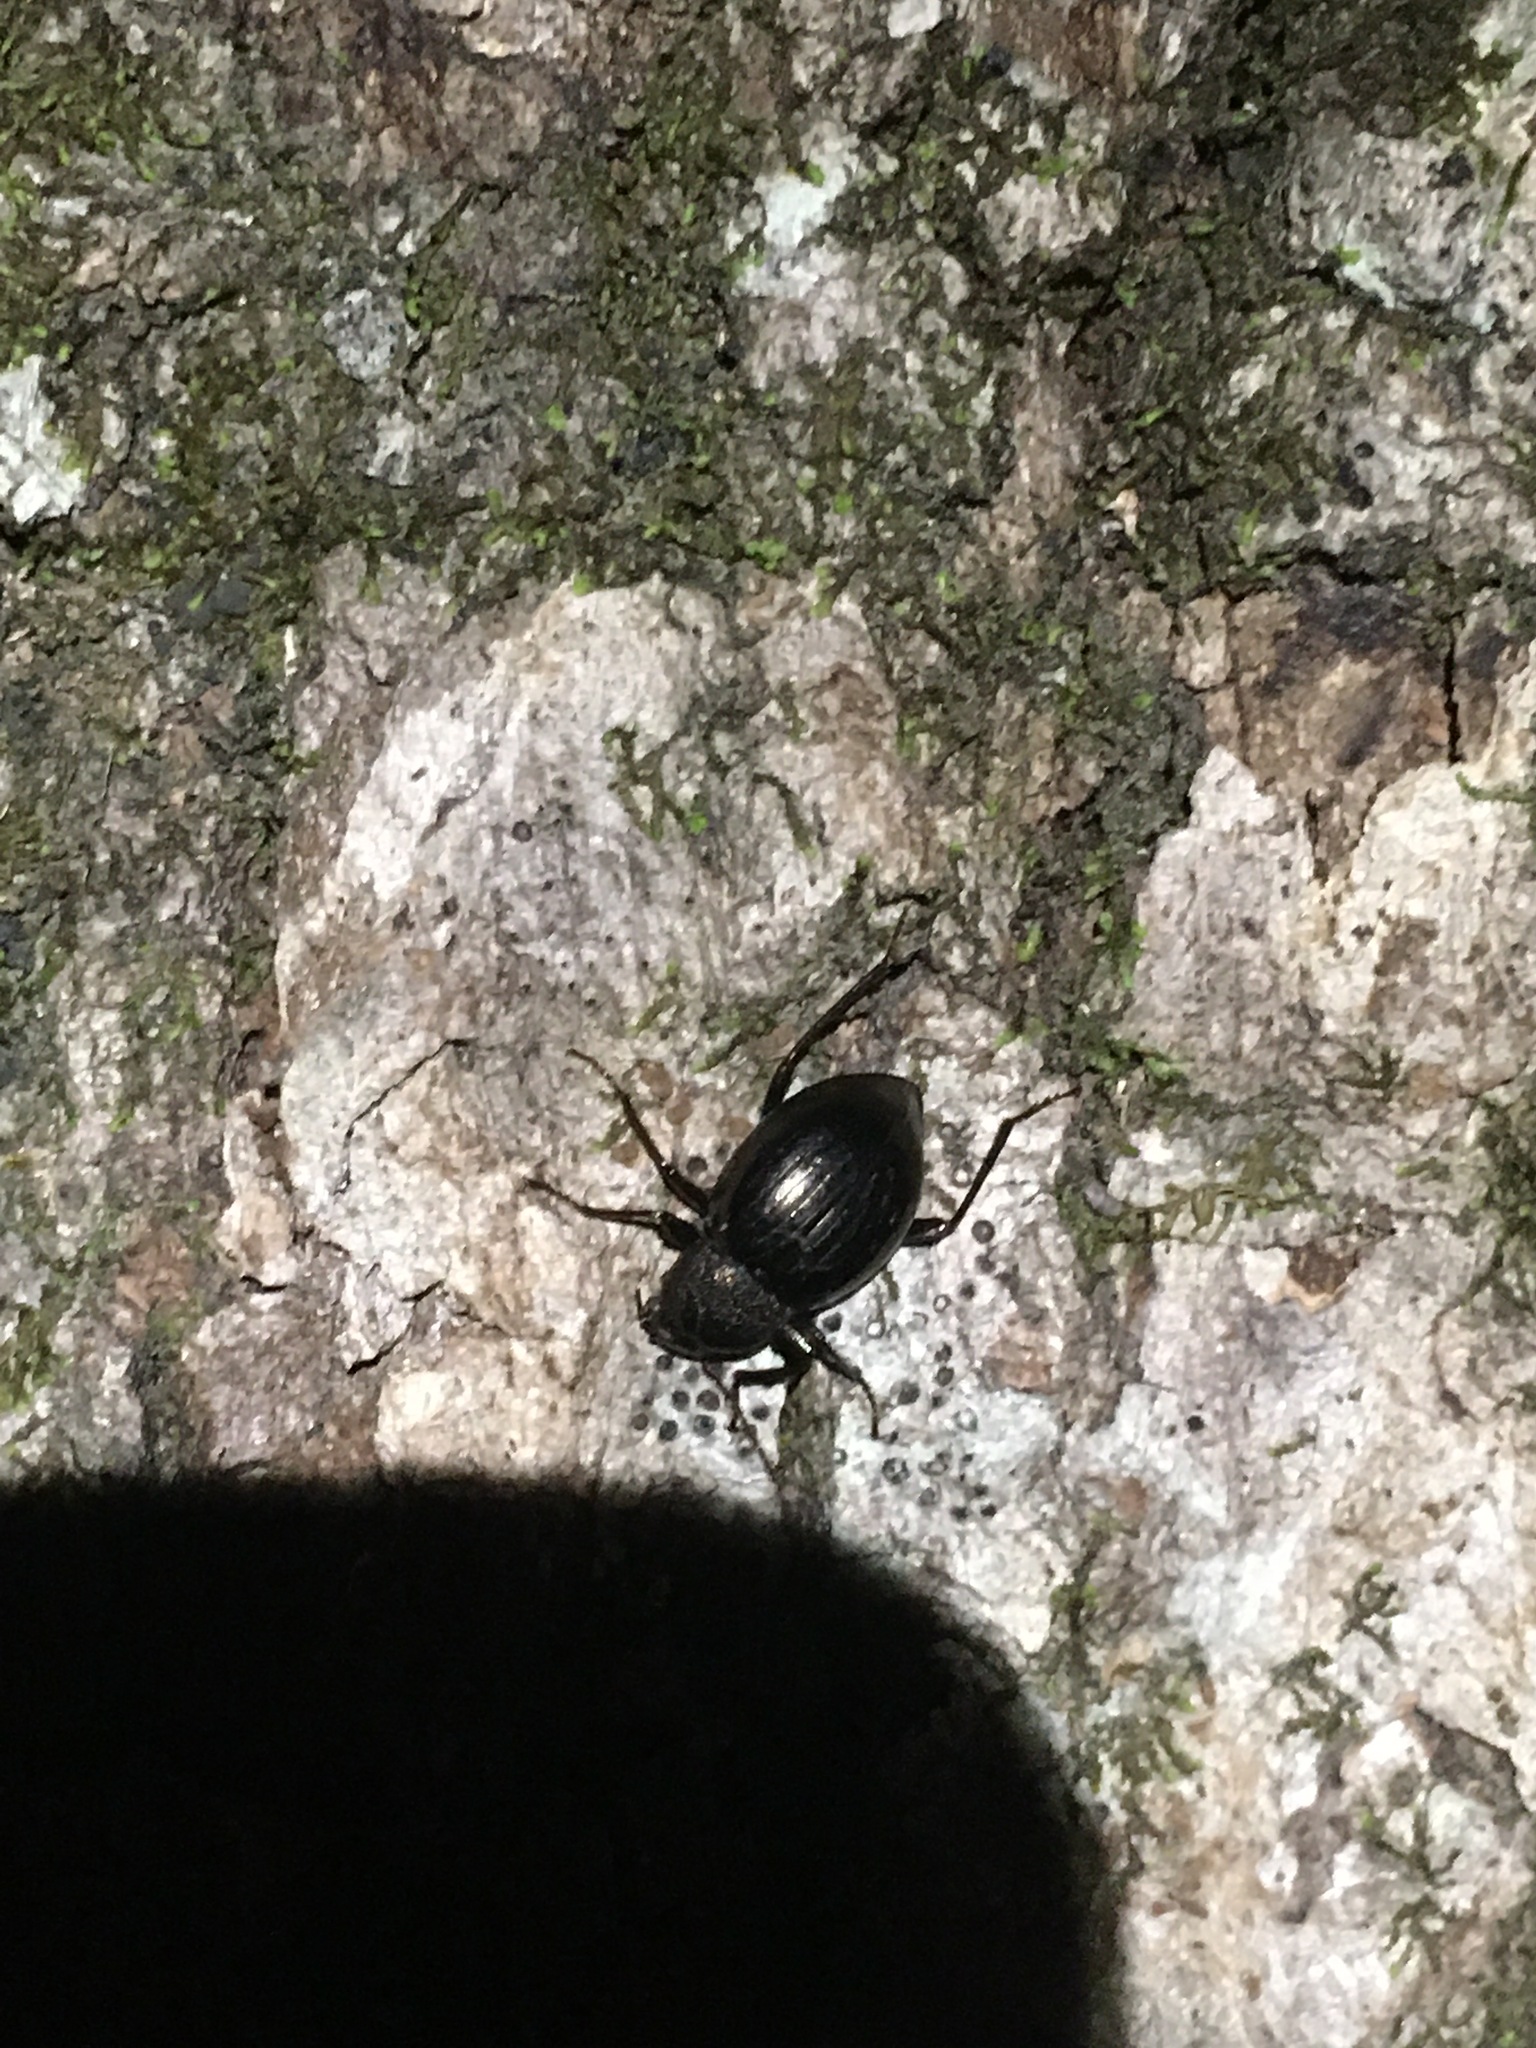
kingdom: Animalia
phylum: Arthropoda
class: Insecta
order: Coleoptera
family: Tenebrionidae
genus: Meracantha
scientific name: Meracantha contracta
